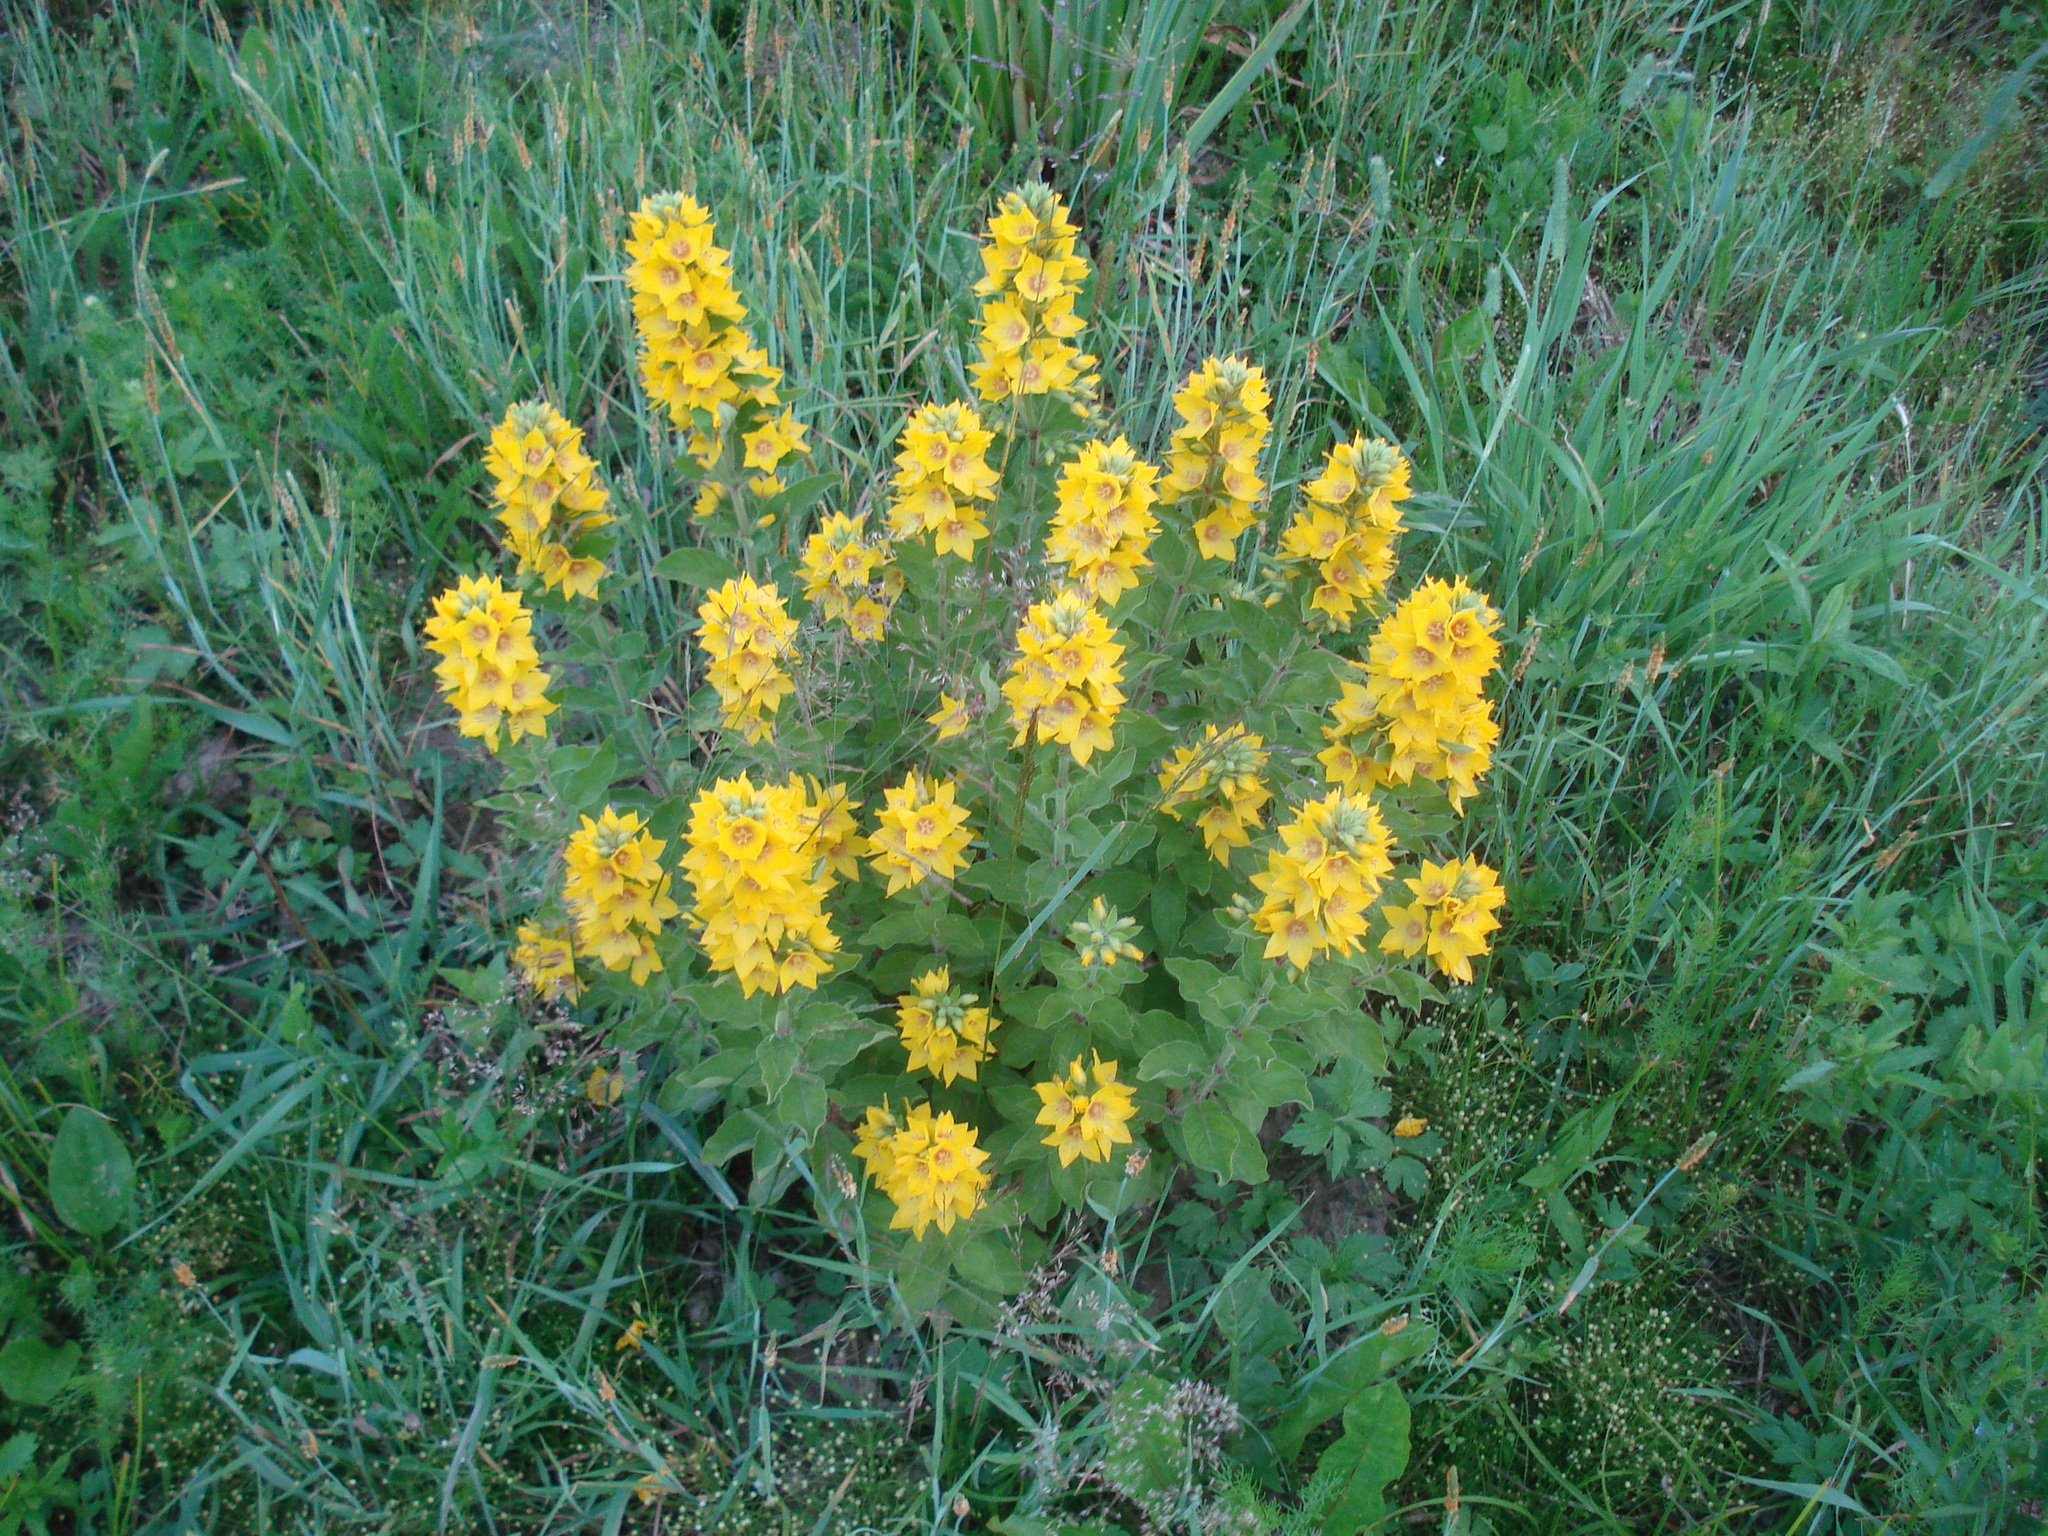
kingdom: Plantae
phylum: Tracheophyta
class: Magnoliopsida
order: Ericales
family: Primulaceae
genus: Lysimachia
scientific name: Lysimachia punctata
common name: Dotted loosestrife
